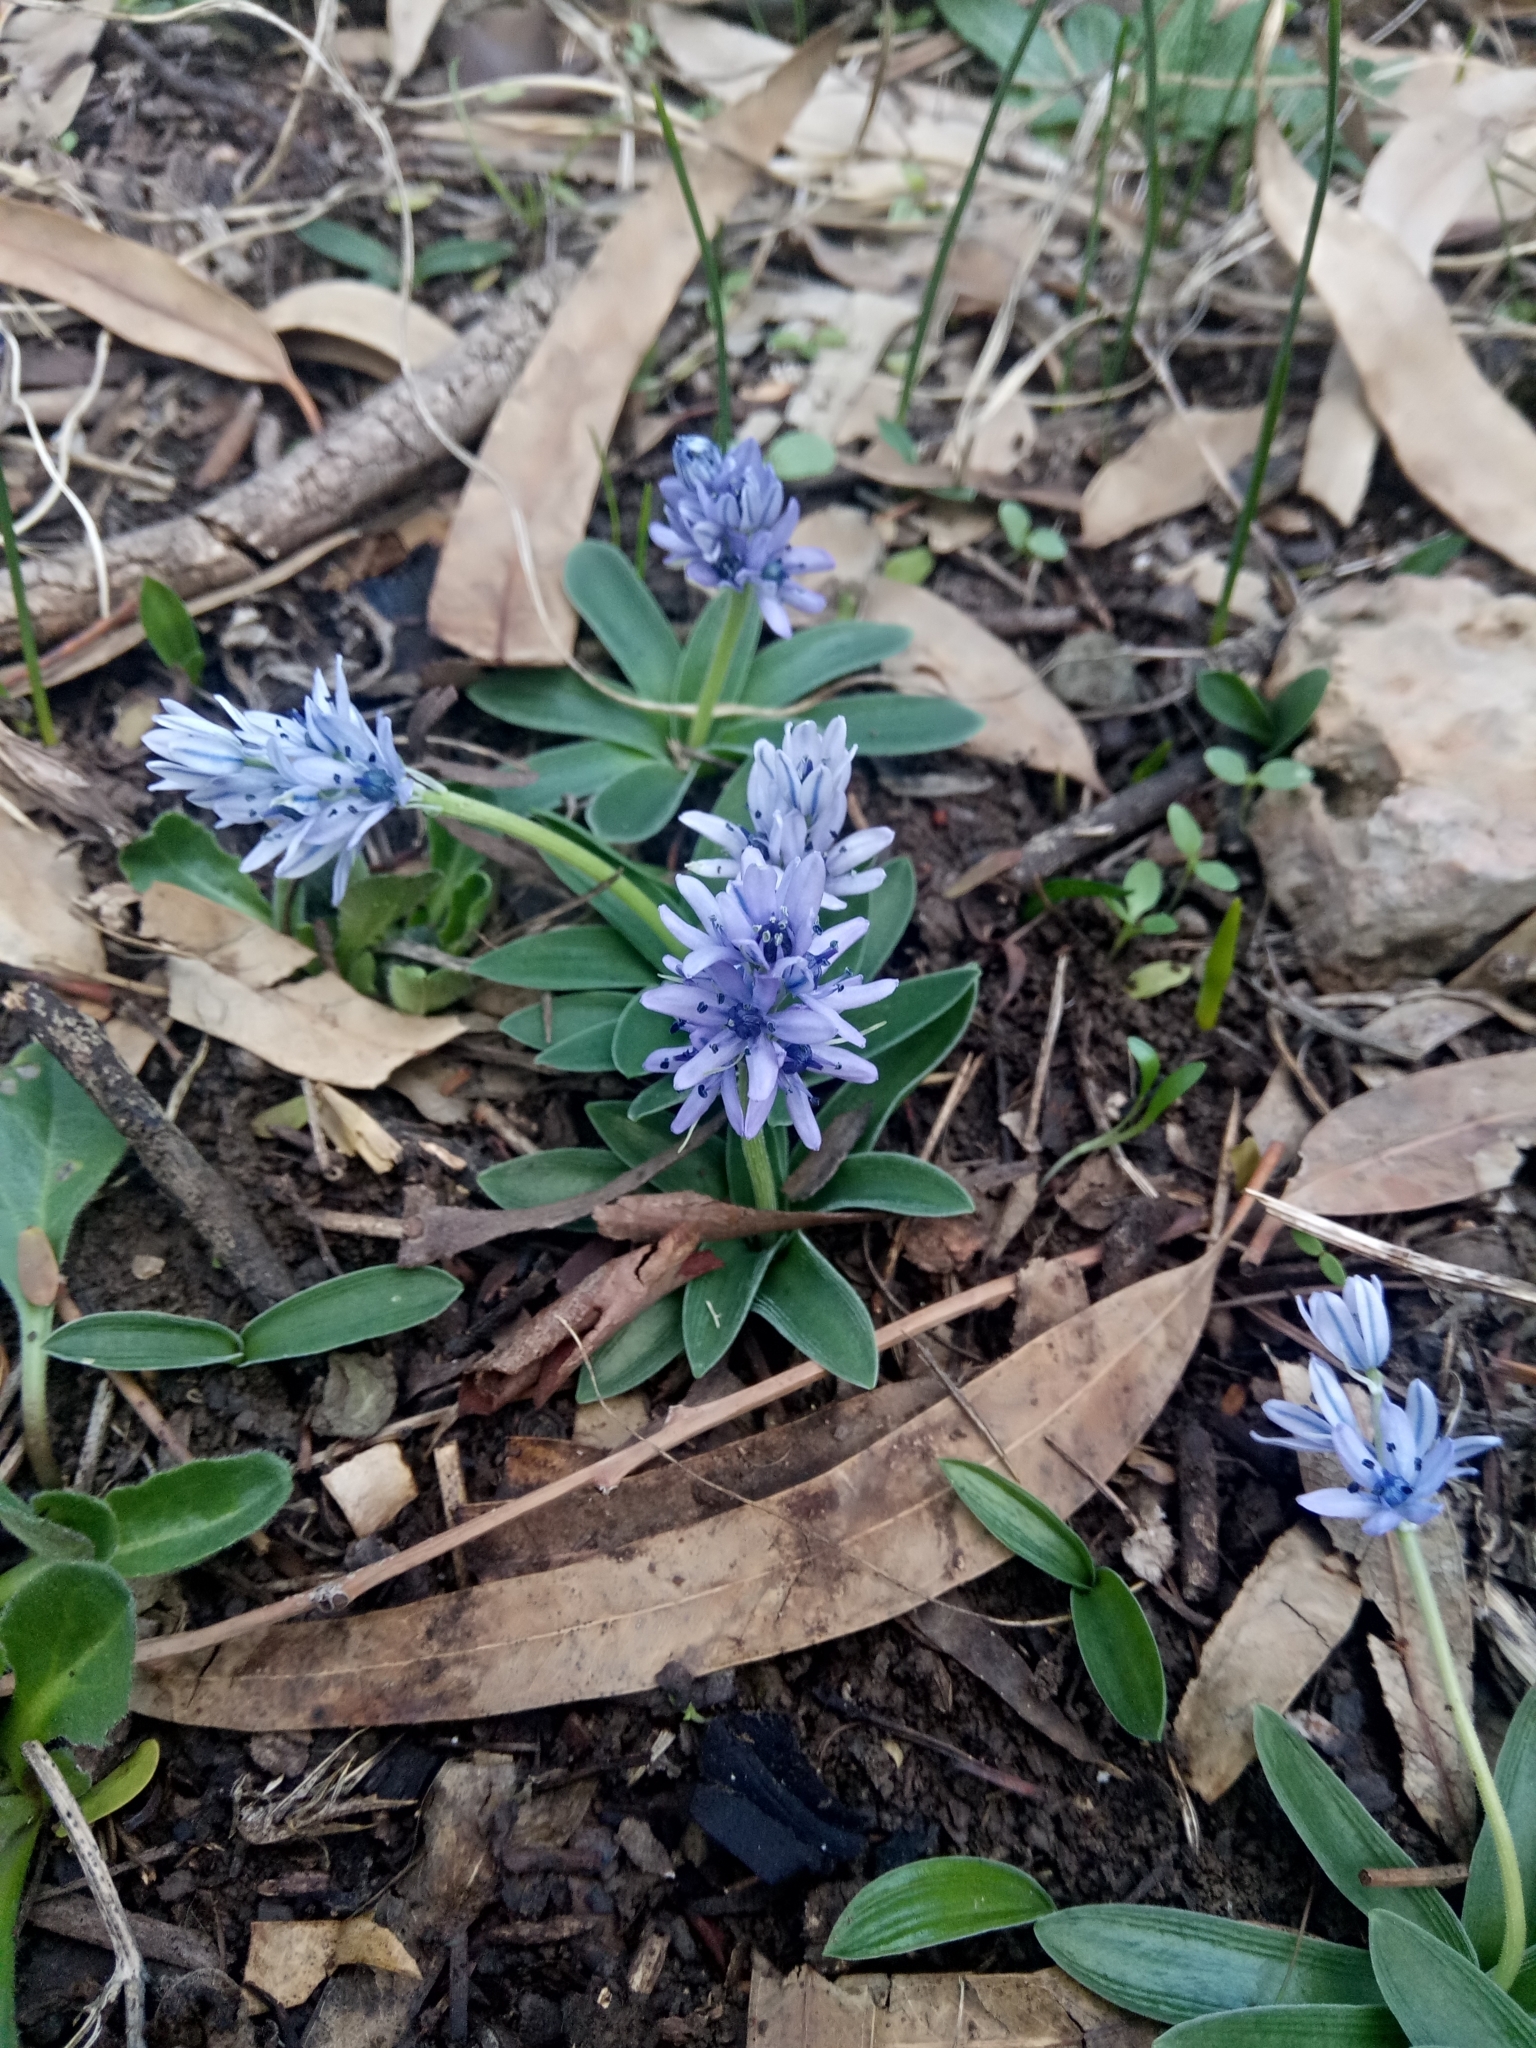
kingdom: Plantae
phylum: Tracheophyta
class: Liliopsida
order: Asparagales
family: Asparagaceae
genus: Hyacinthoides
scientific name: Hyacinthoides lingulata
